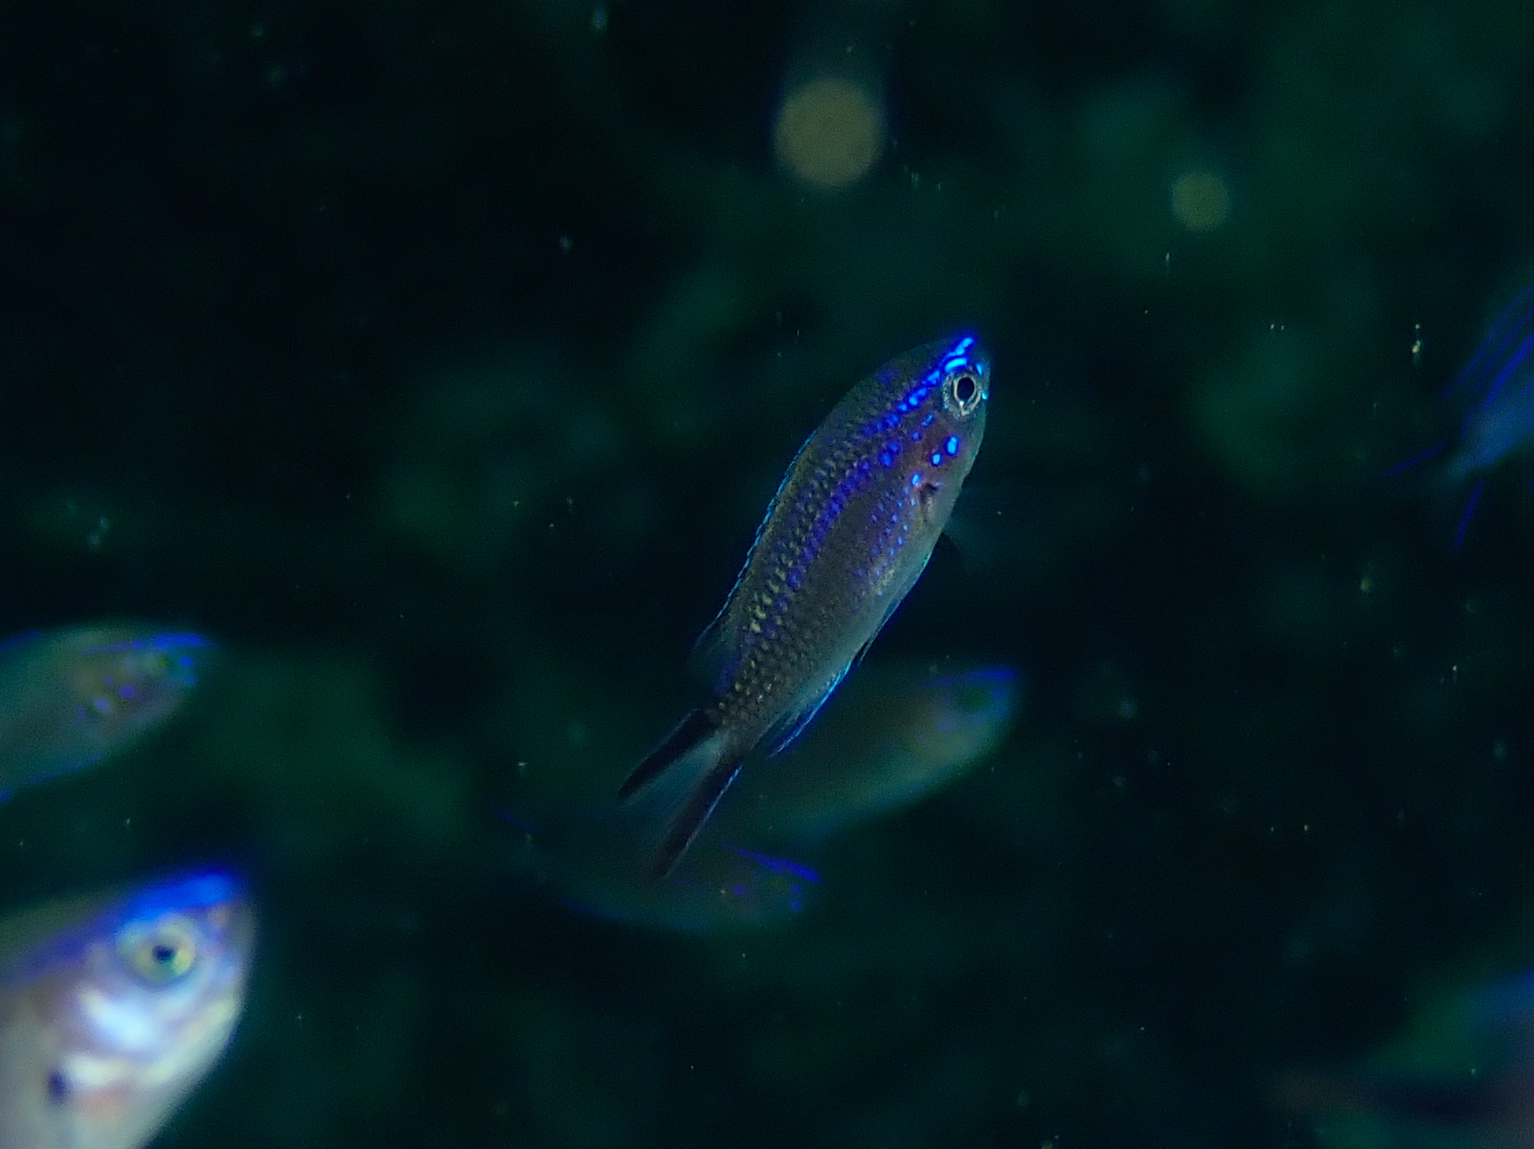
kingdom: Animalia
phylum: Chordata
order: Perciformes
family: Pomacentridae
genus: Chromis
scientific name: Chromis chromis
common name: Damselfish
